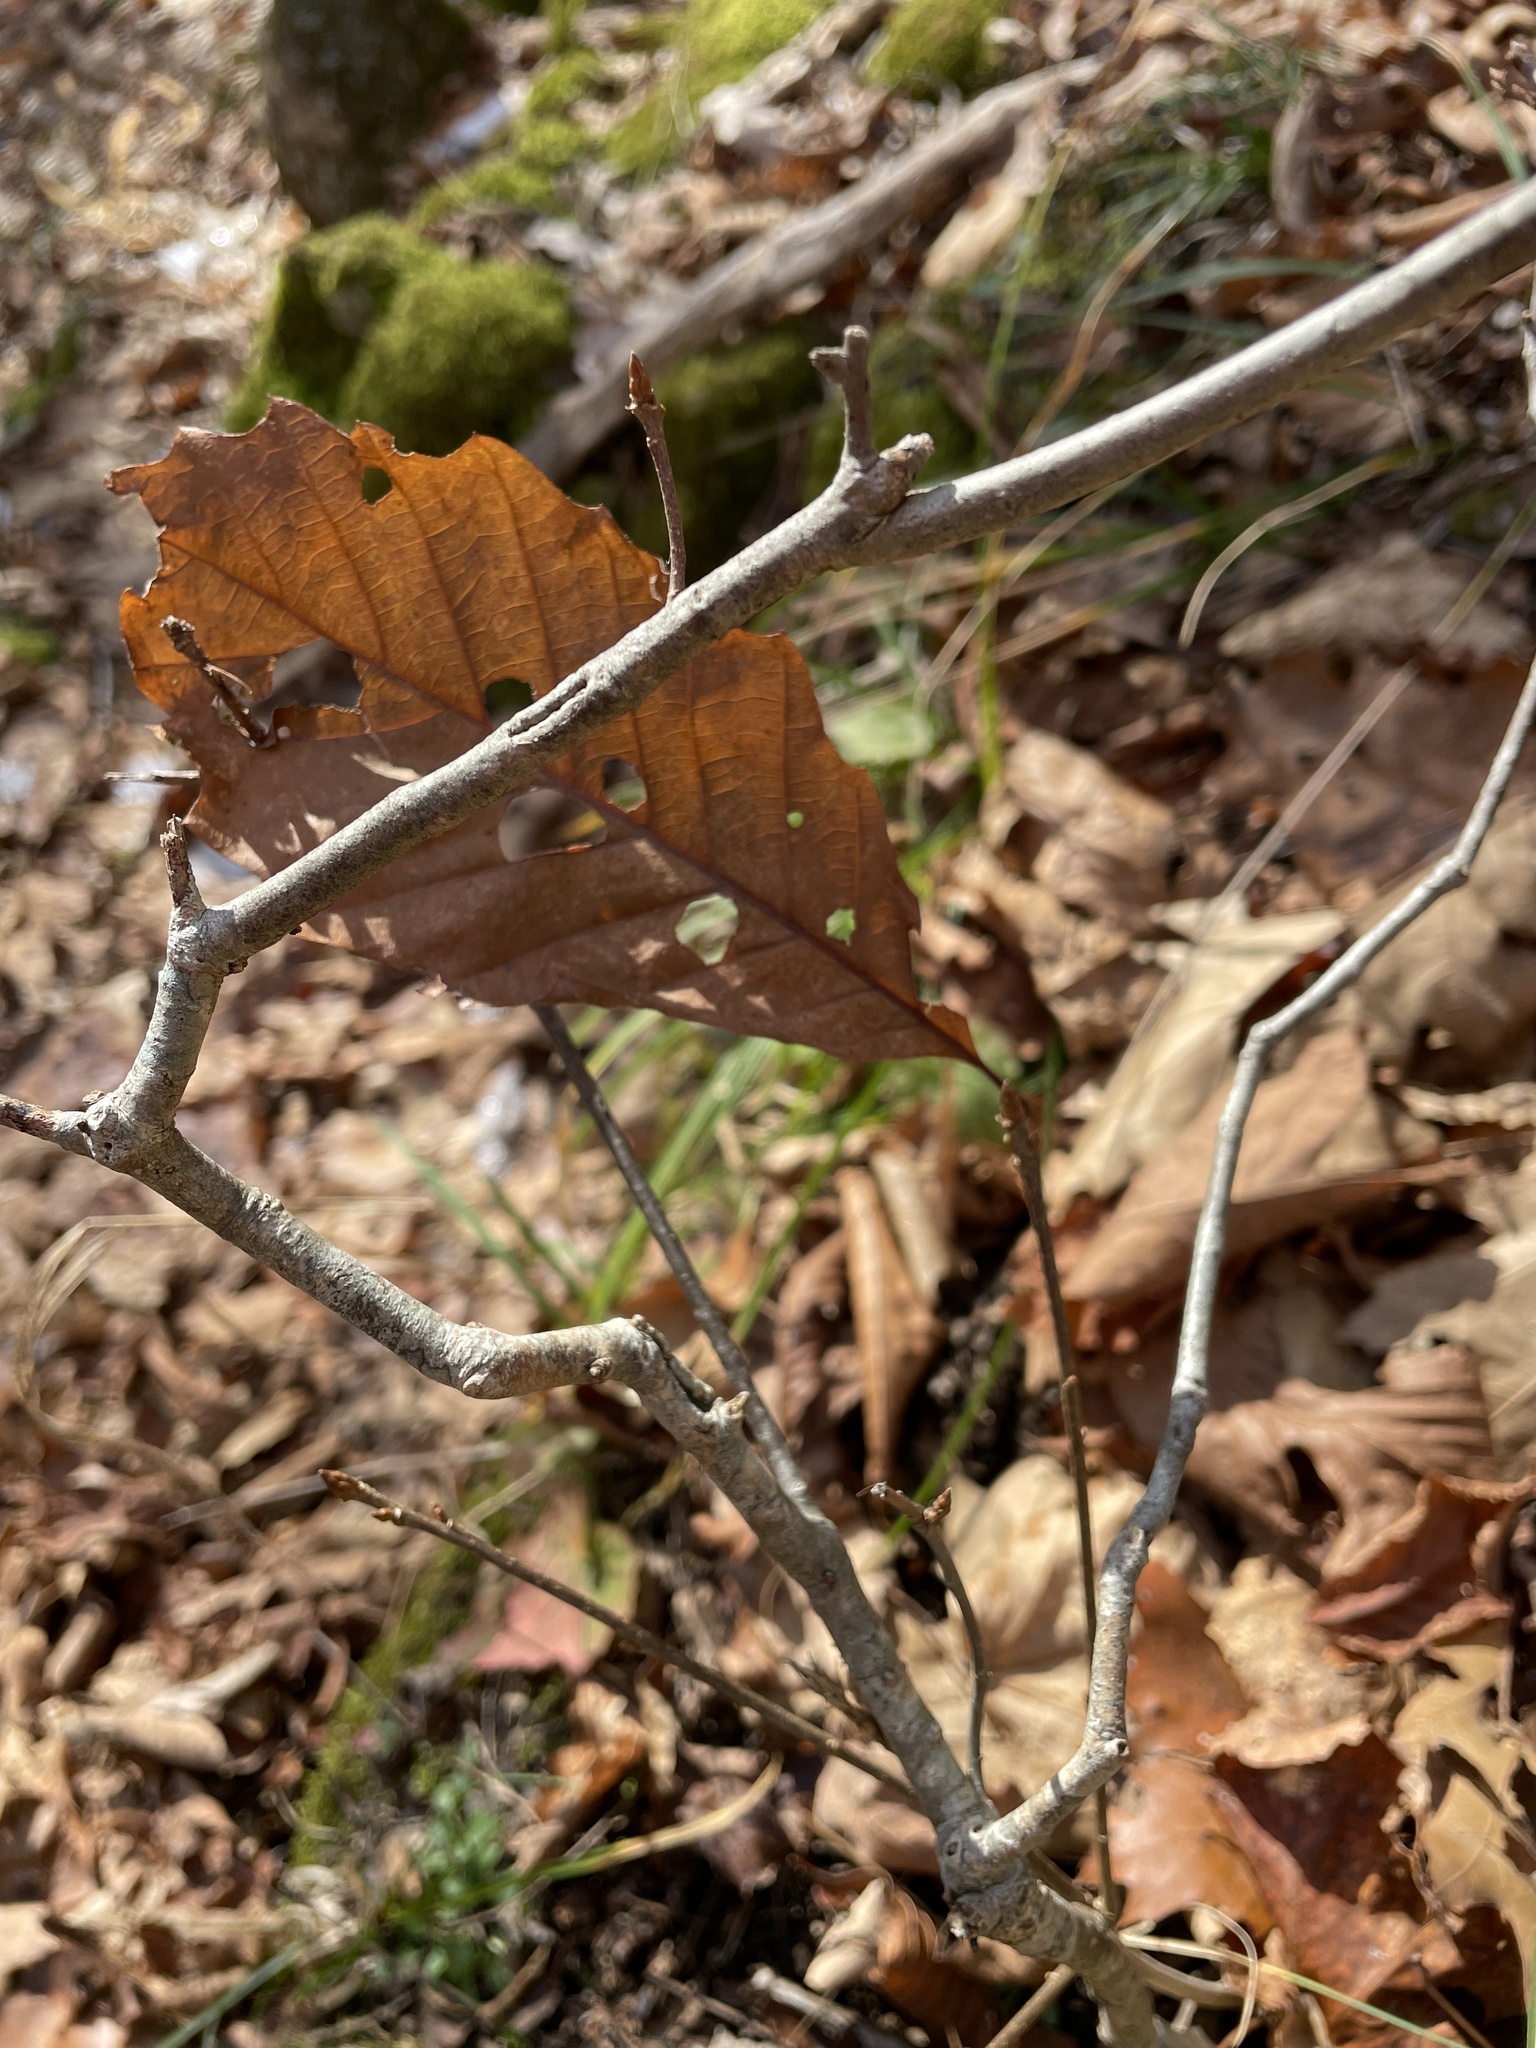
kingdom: Plantae
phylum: Tracheophyta
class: Magnoliopsida
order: Fagales
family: Fagaceae
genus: Quercus
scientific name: Quercus montana
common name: Chestnut oak
